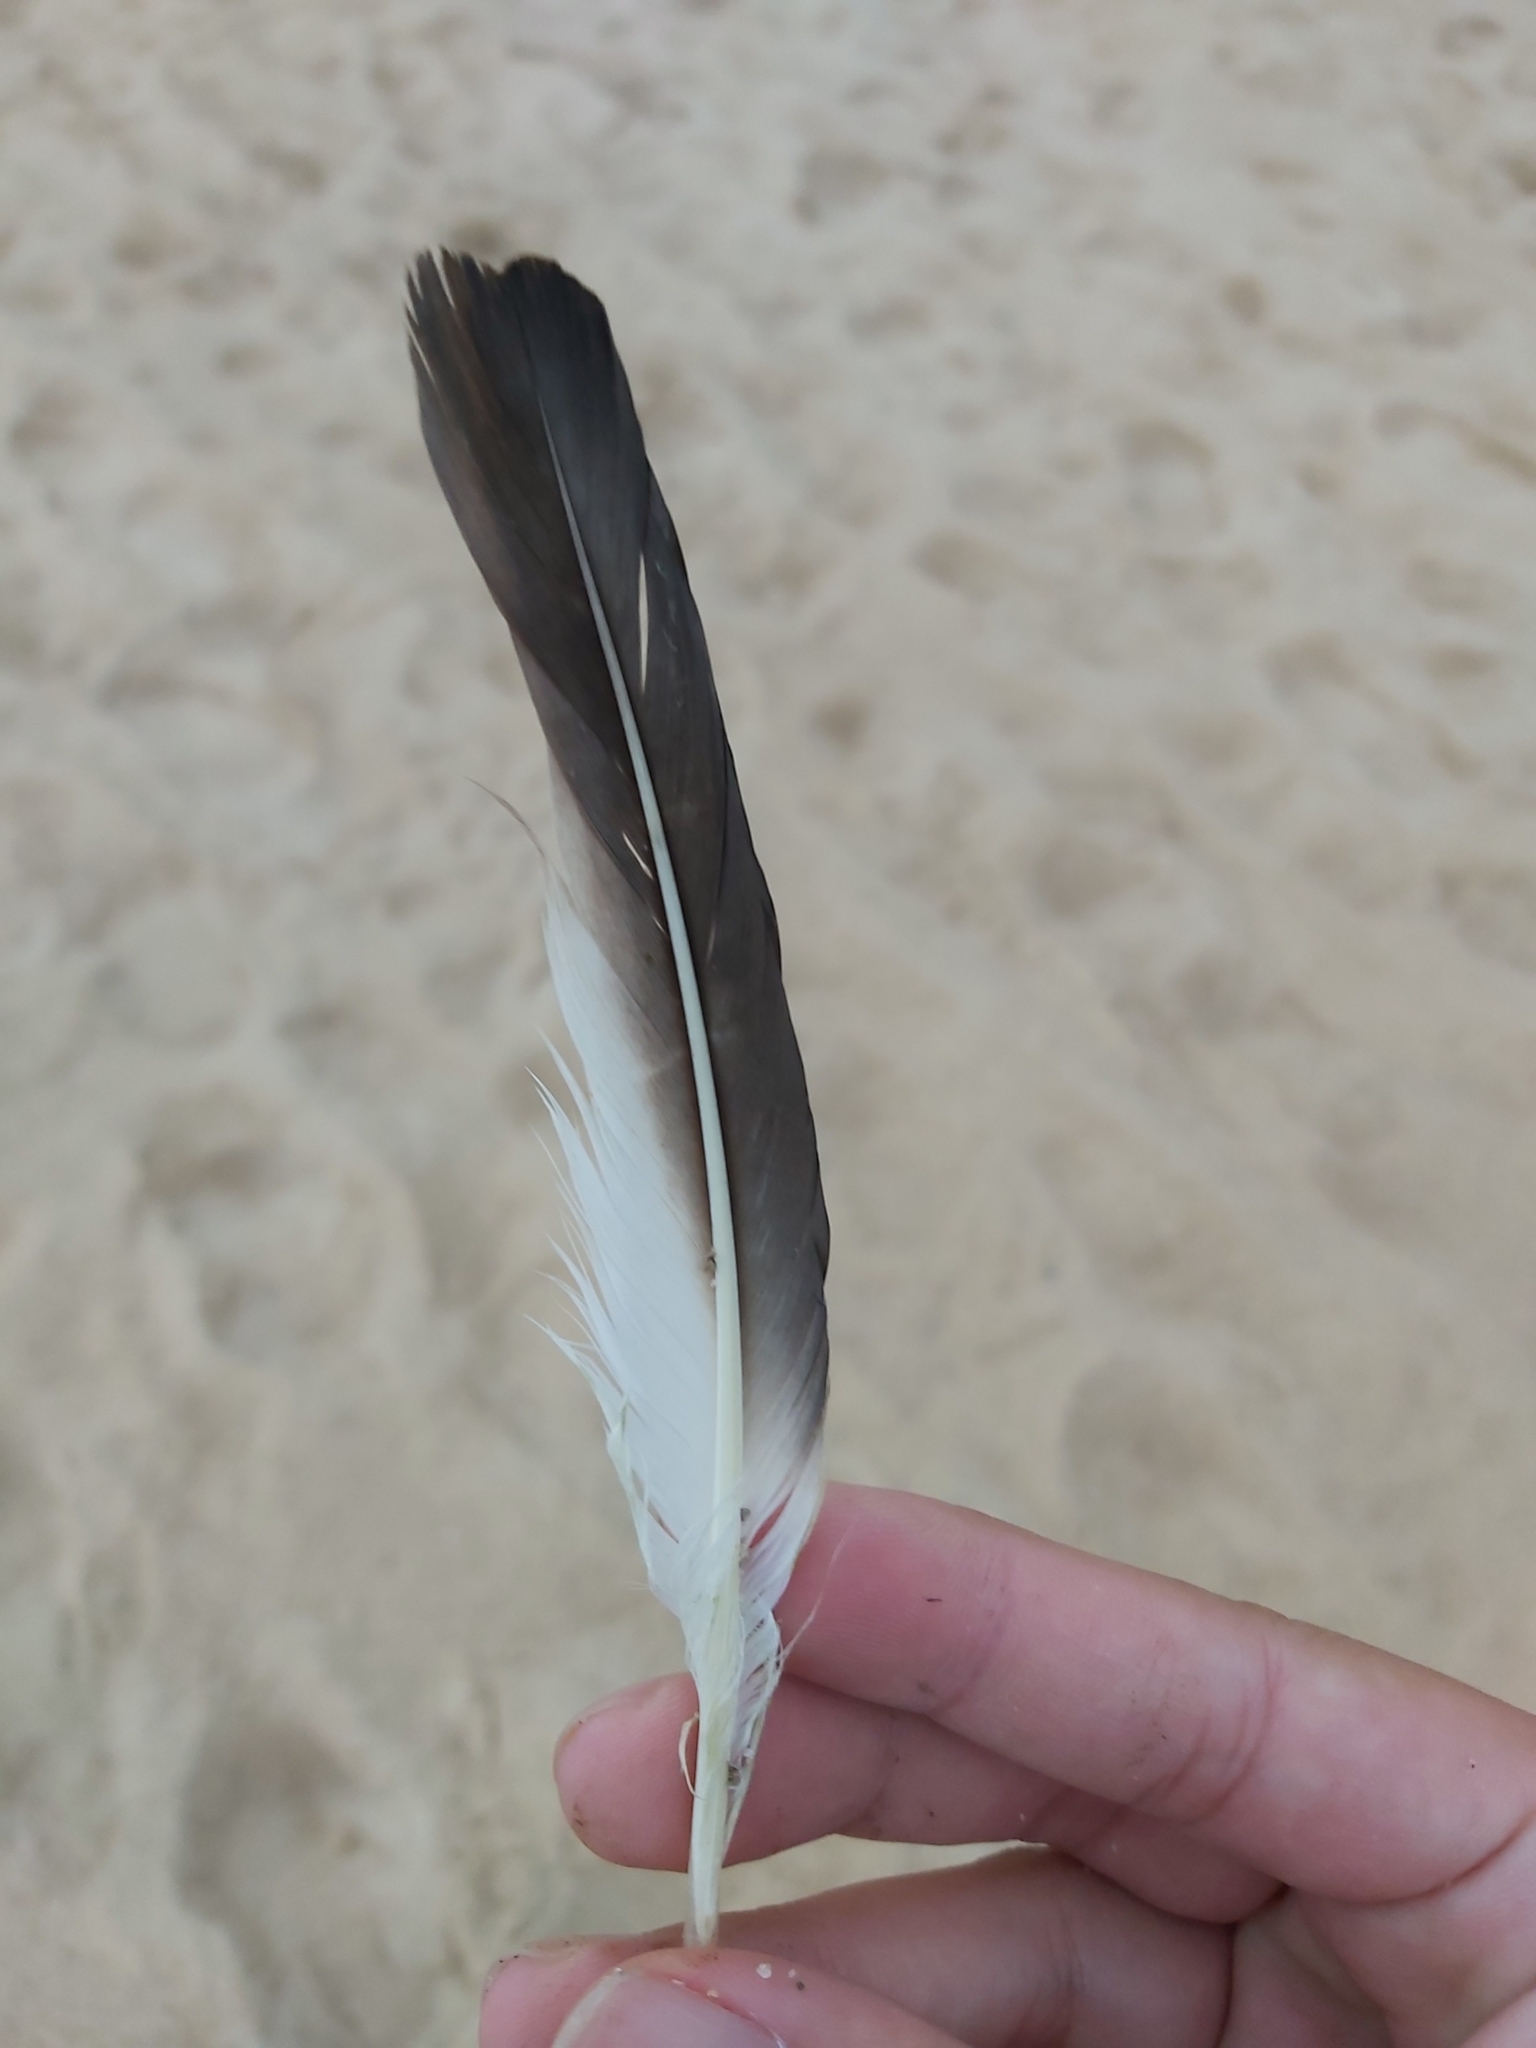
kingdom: Animalia
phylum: Chordata
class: Aves
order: Suliformes
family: Sulidae
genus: Morus
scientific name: Morus serrator
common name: Australasian gannet
